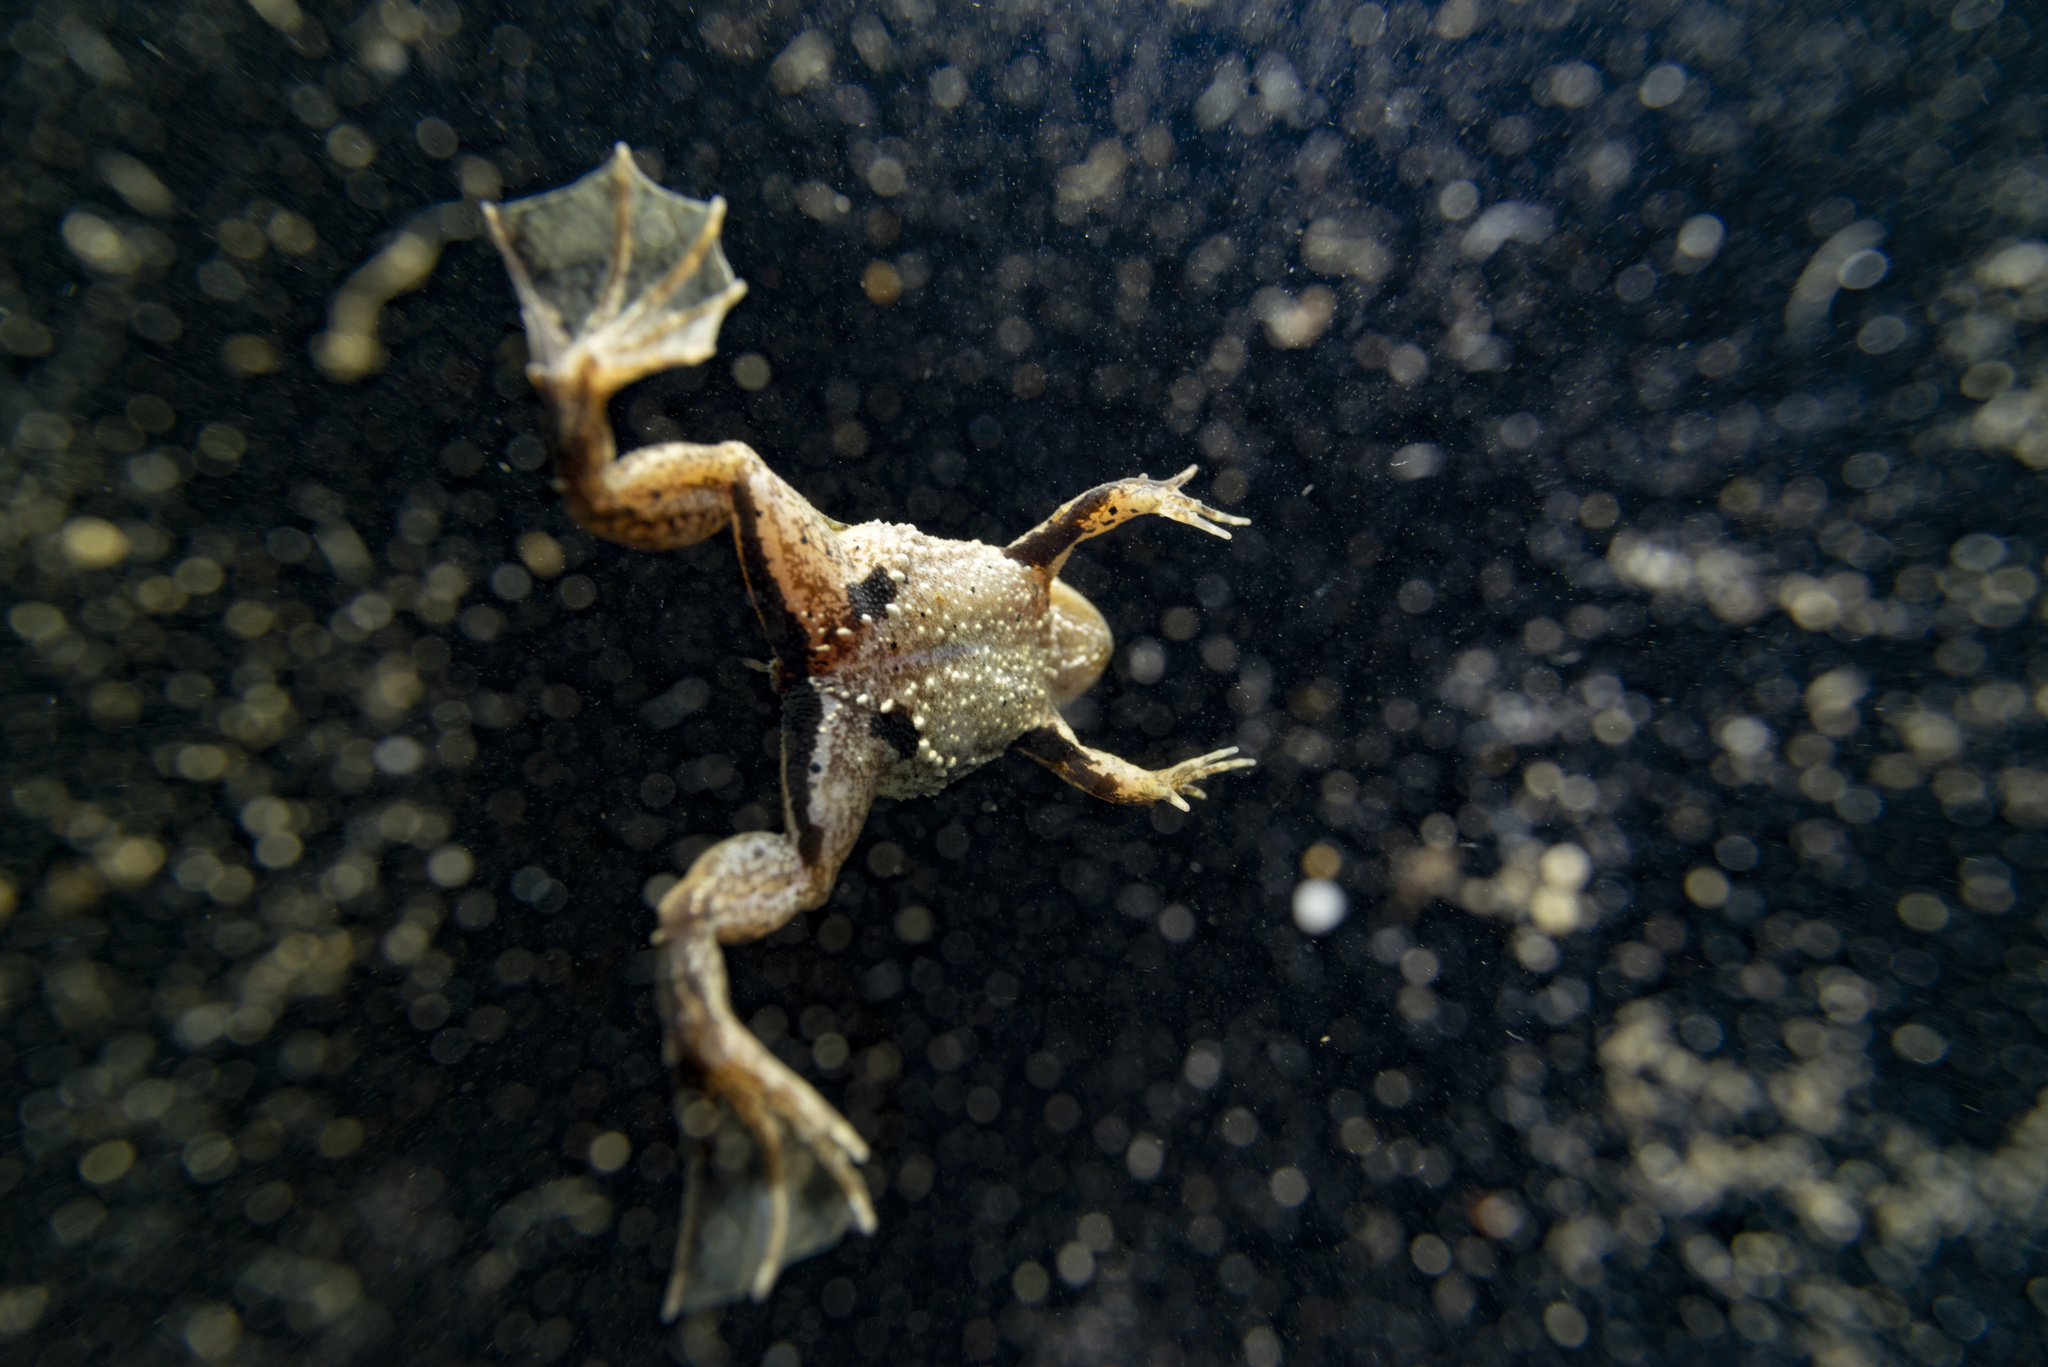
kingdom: Animalia
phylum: Chordata
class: Amphibia
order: Anura
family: Dicroglossidae
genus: Occidozyga
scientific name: Occidozyga lima
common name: Rough-skinned puddle frog/yellow-bellied puddle frog/green puddle frog/pointed-tongued floating frog
